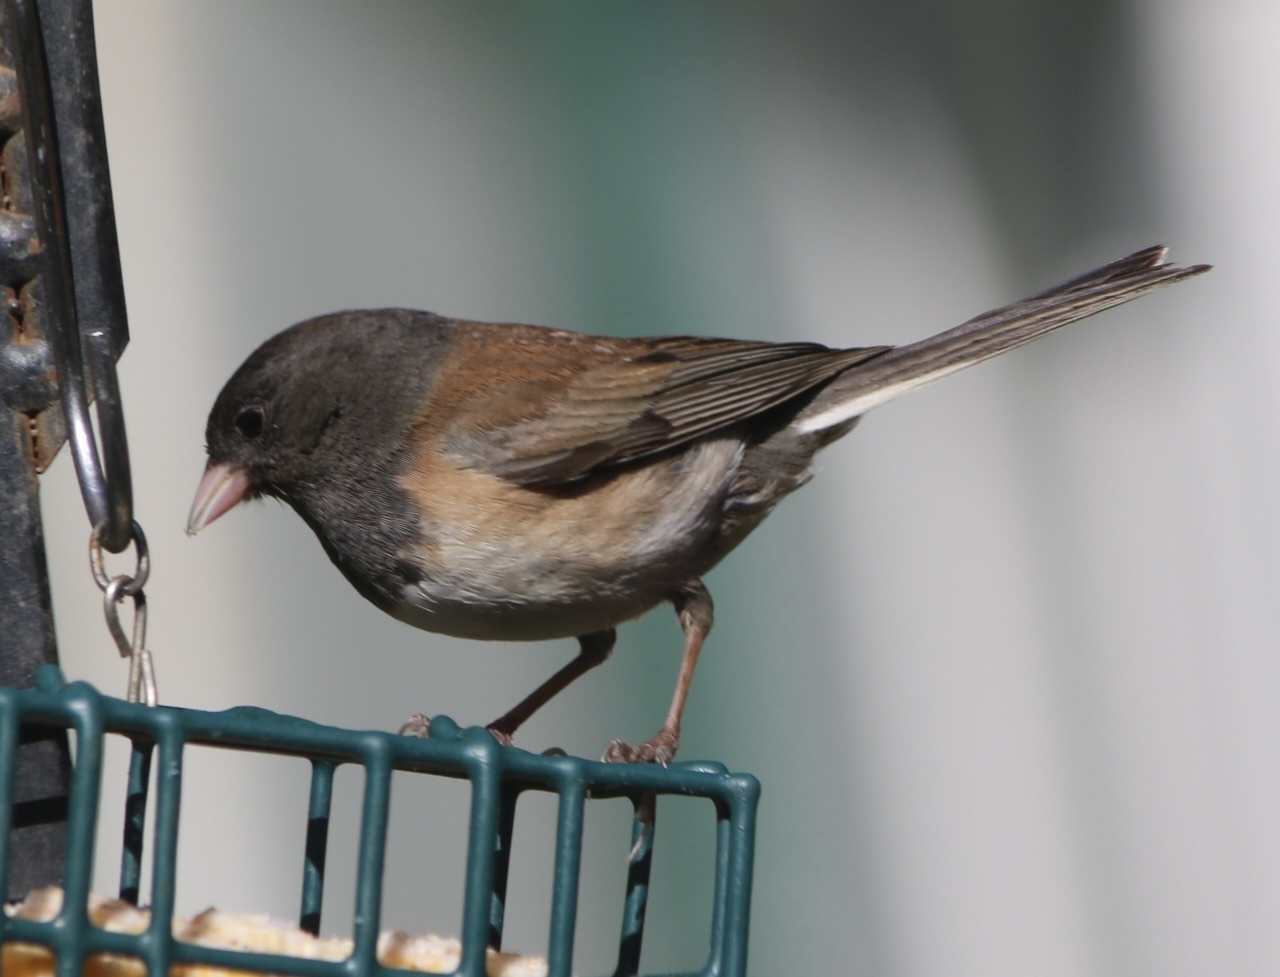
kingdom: Animalia
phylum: Chordata
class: Aves
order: Passeriformes
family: Passerellidae
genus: Junco
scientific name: Junco hyemalis
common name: Dark-eyed junco
